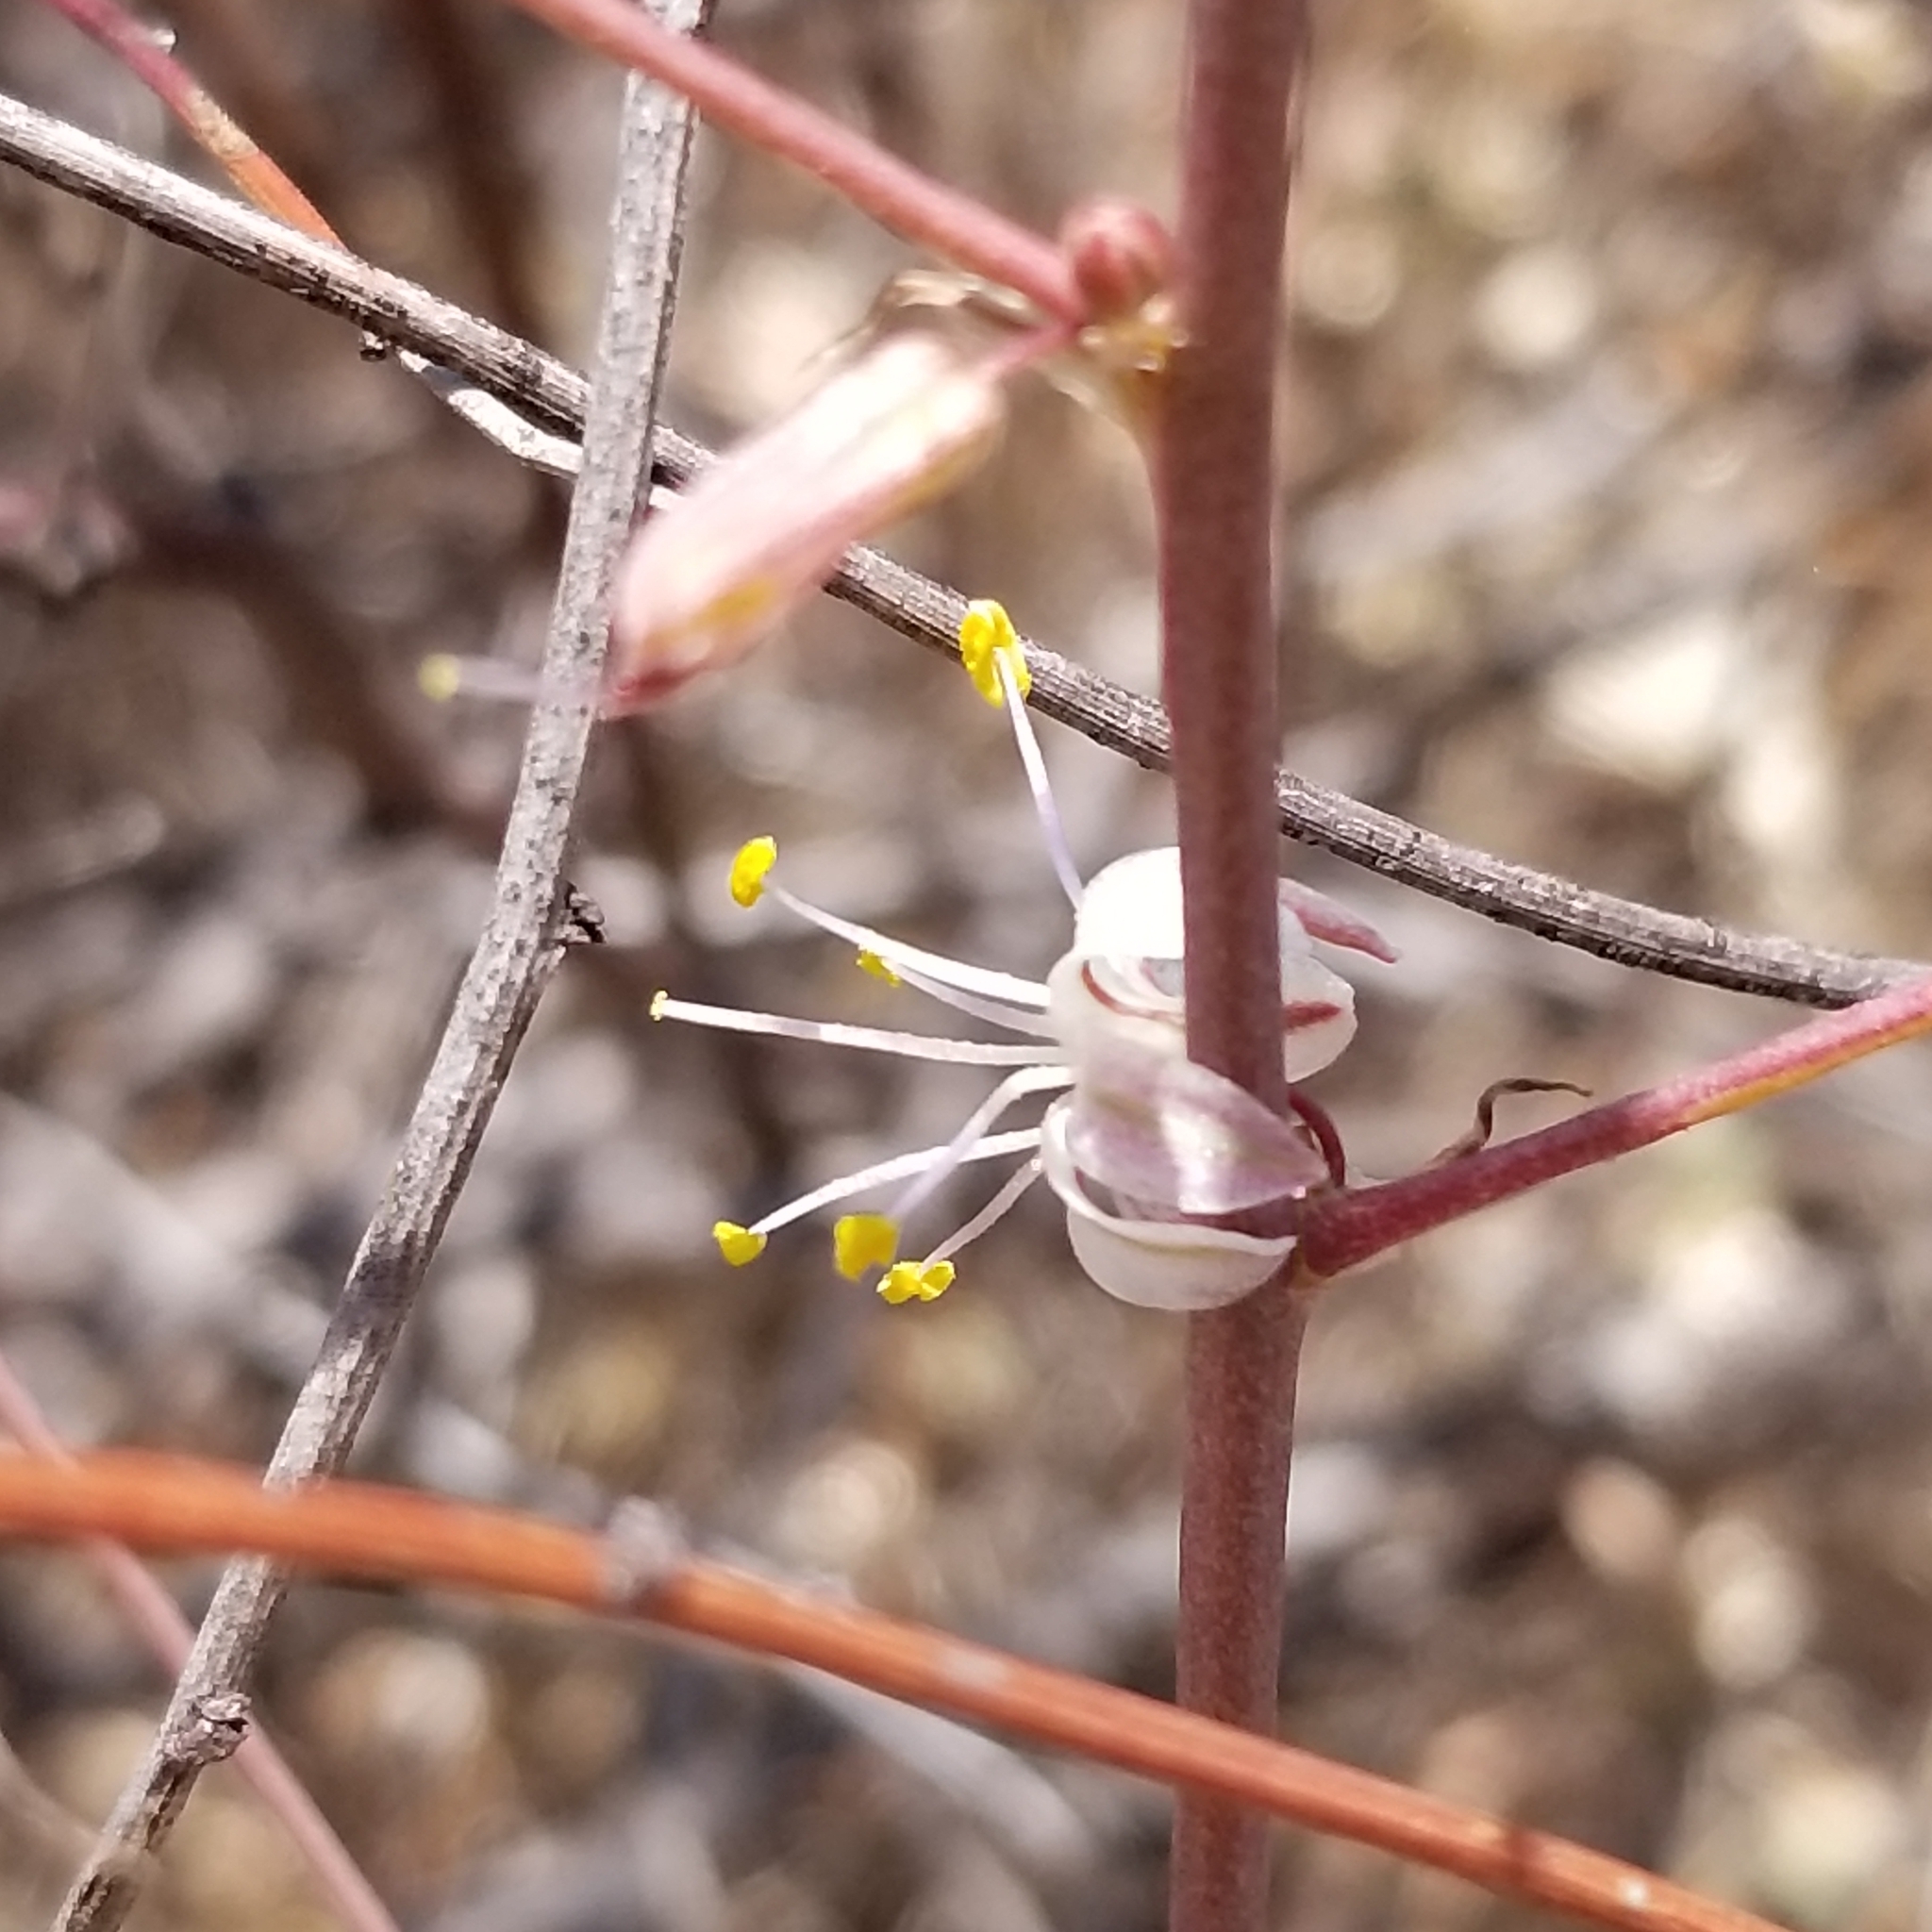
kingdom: Plantae
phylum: Tracheophyta
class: Liliopsida
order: Asparagales
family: Asparagaceae
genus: Hooveria
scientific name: Hooveria parviflora
